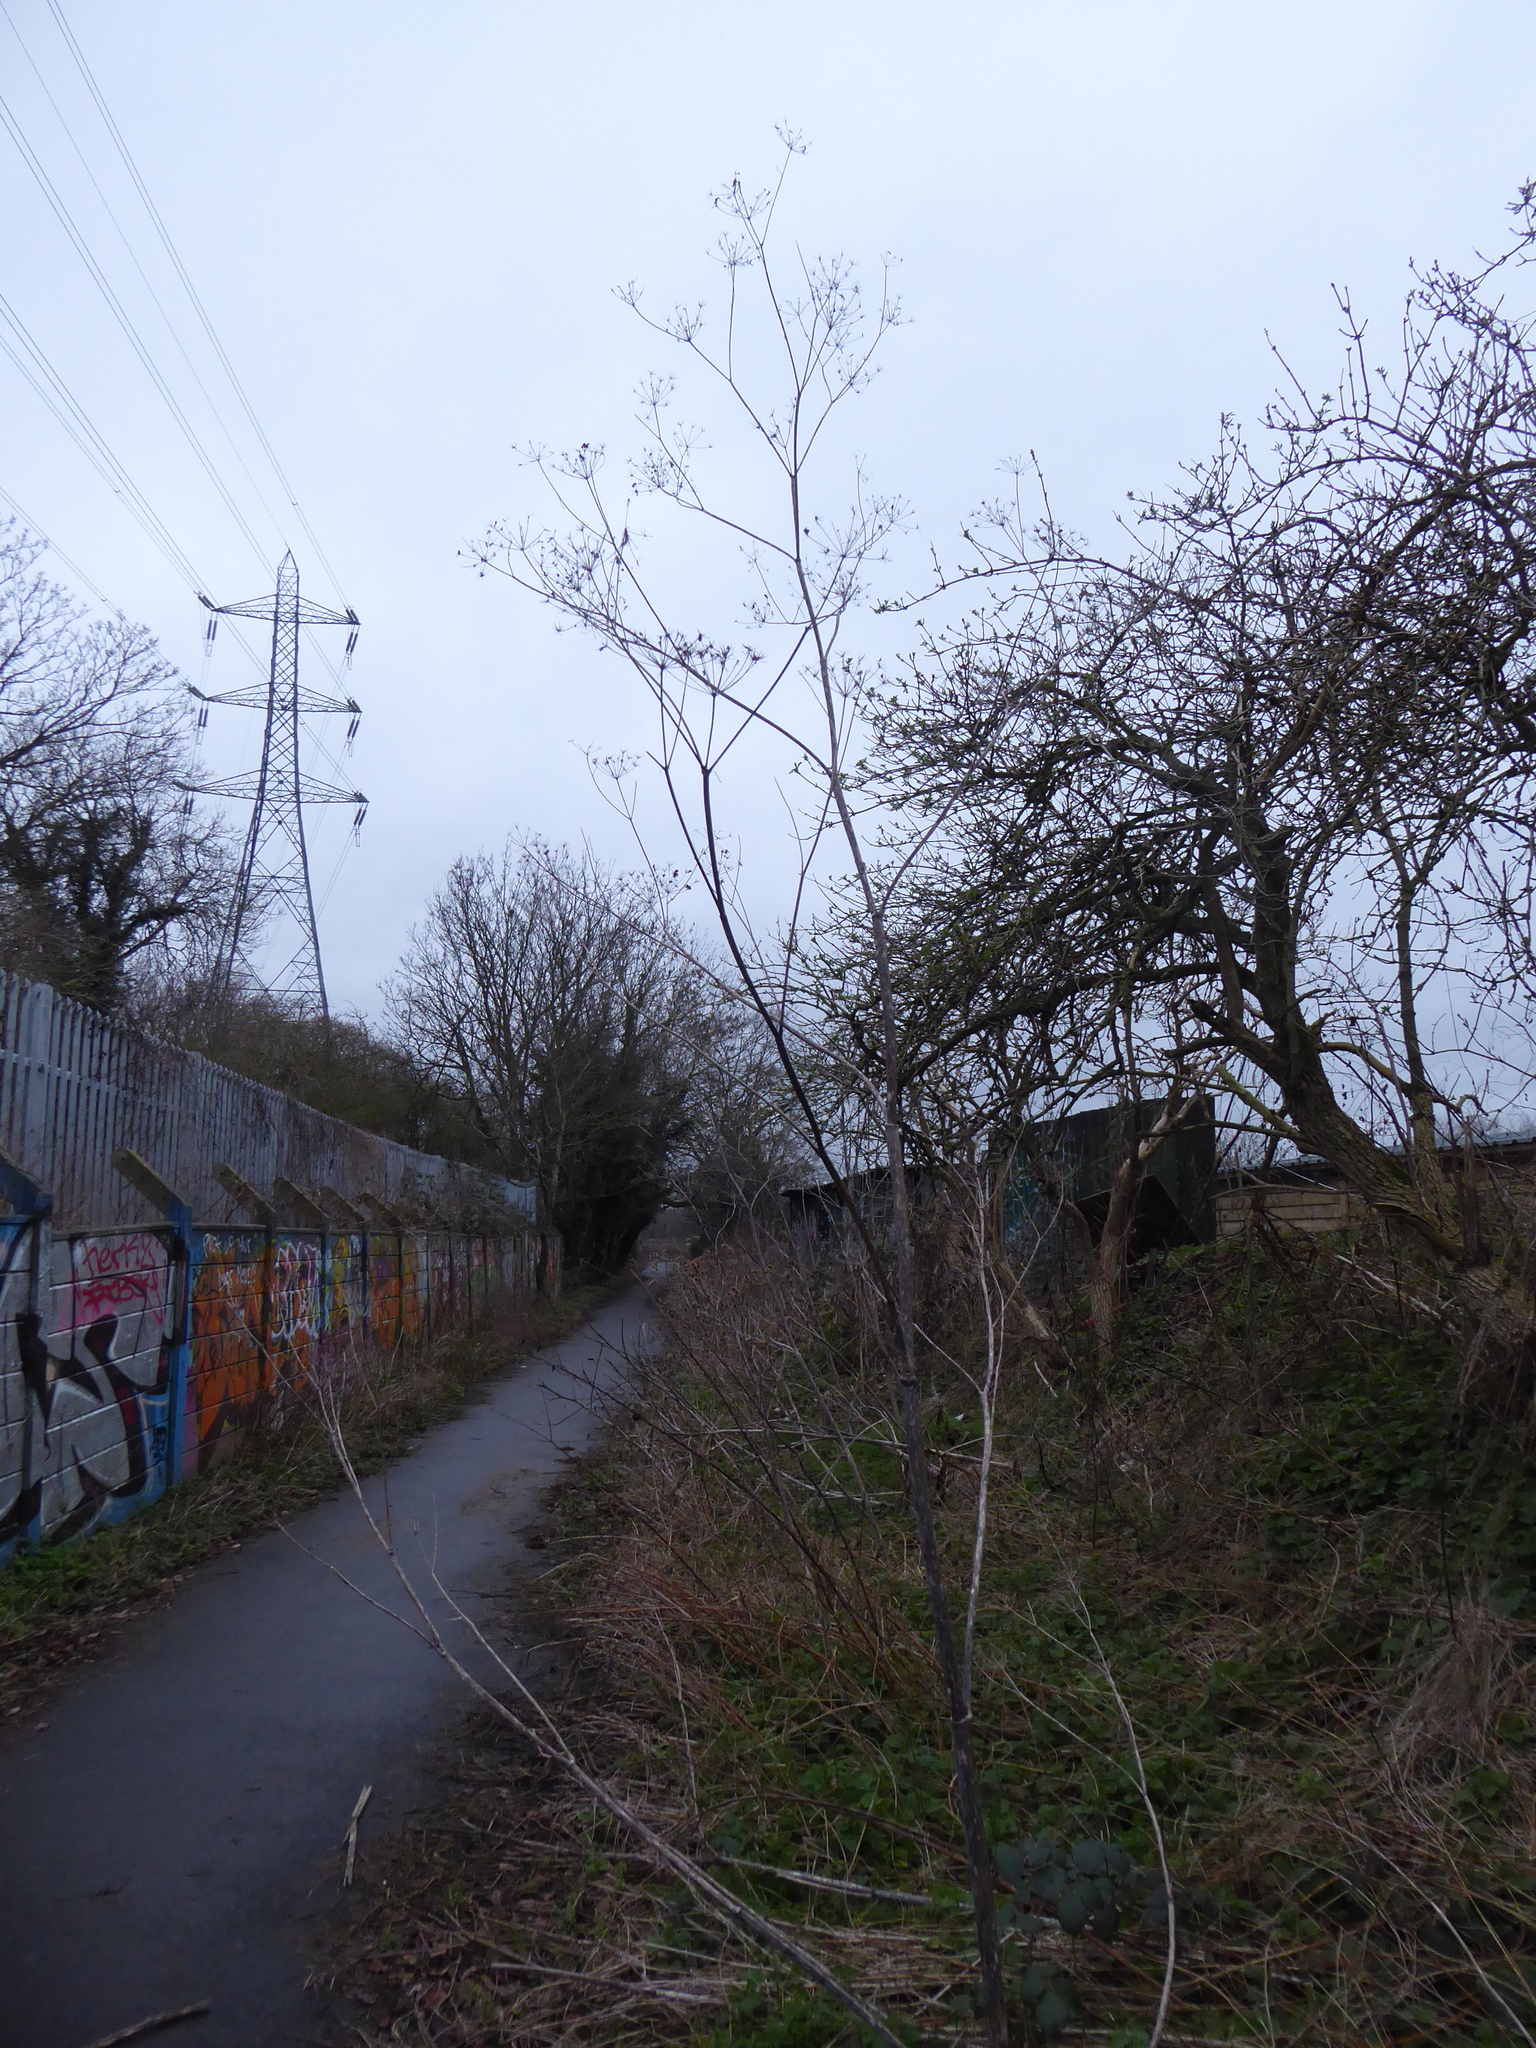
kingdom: Plantae
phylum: Tracheophyta
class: Magnoliopsida
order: Apiales
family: Apiaceae
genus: Conium
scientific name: Conium maculatum
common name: Hemlock
